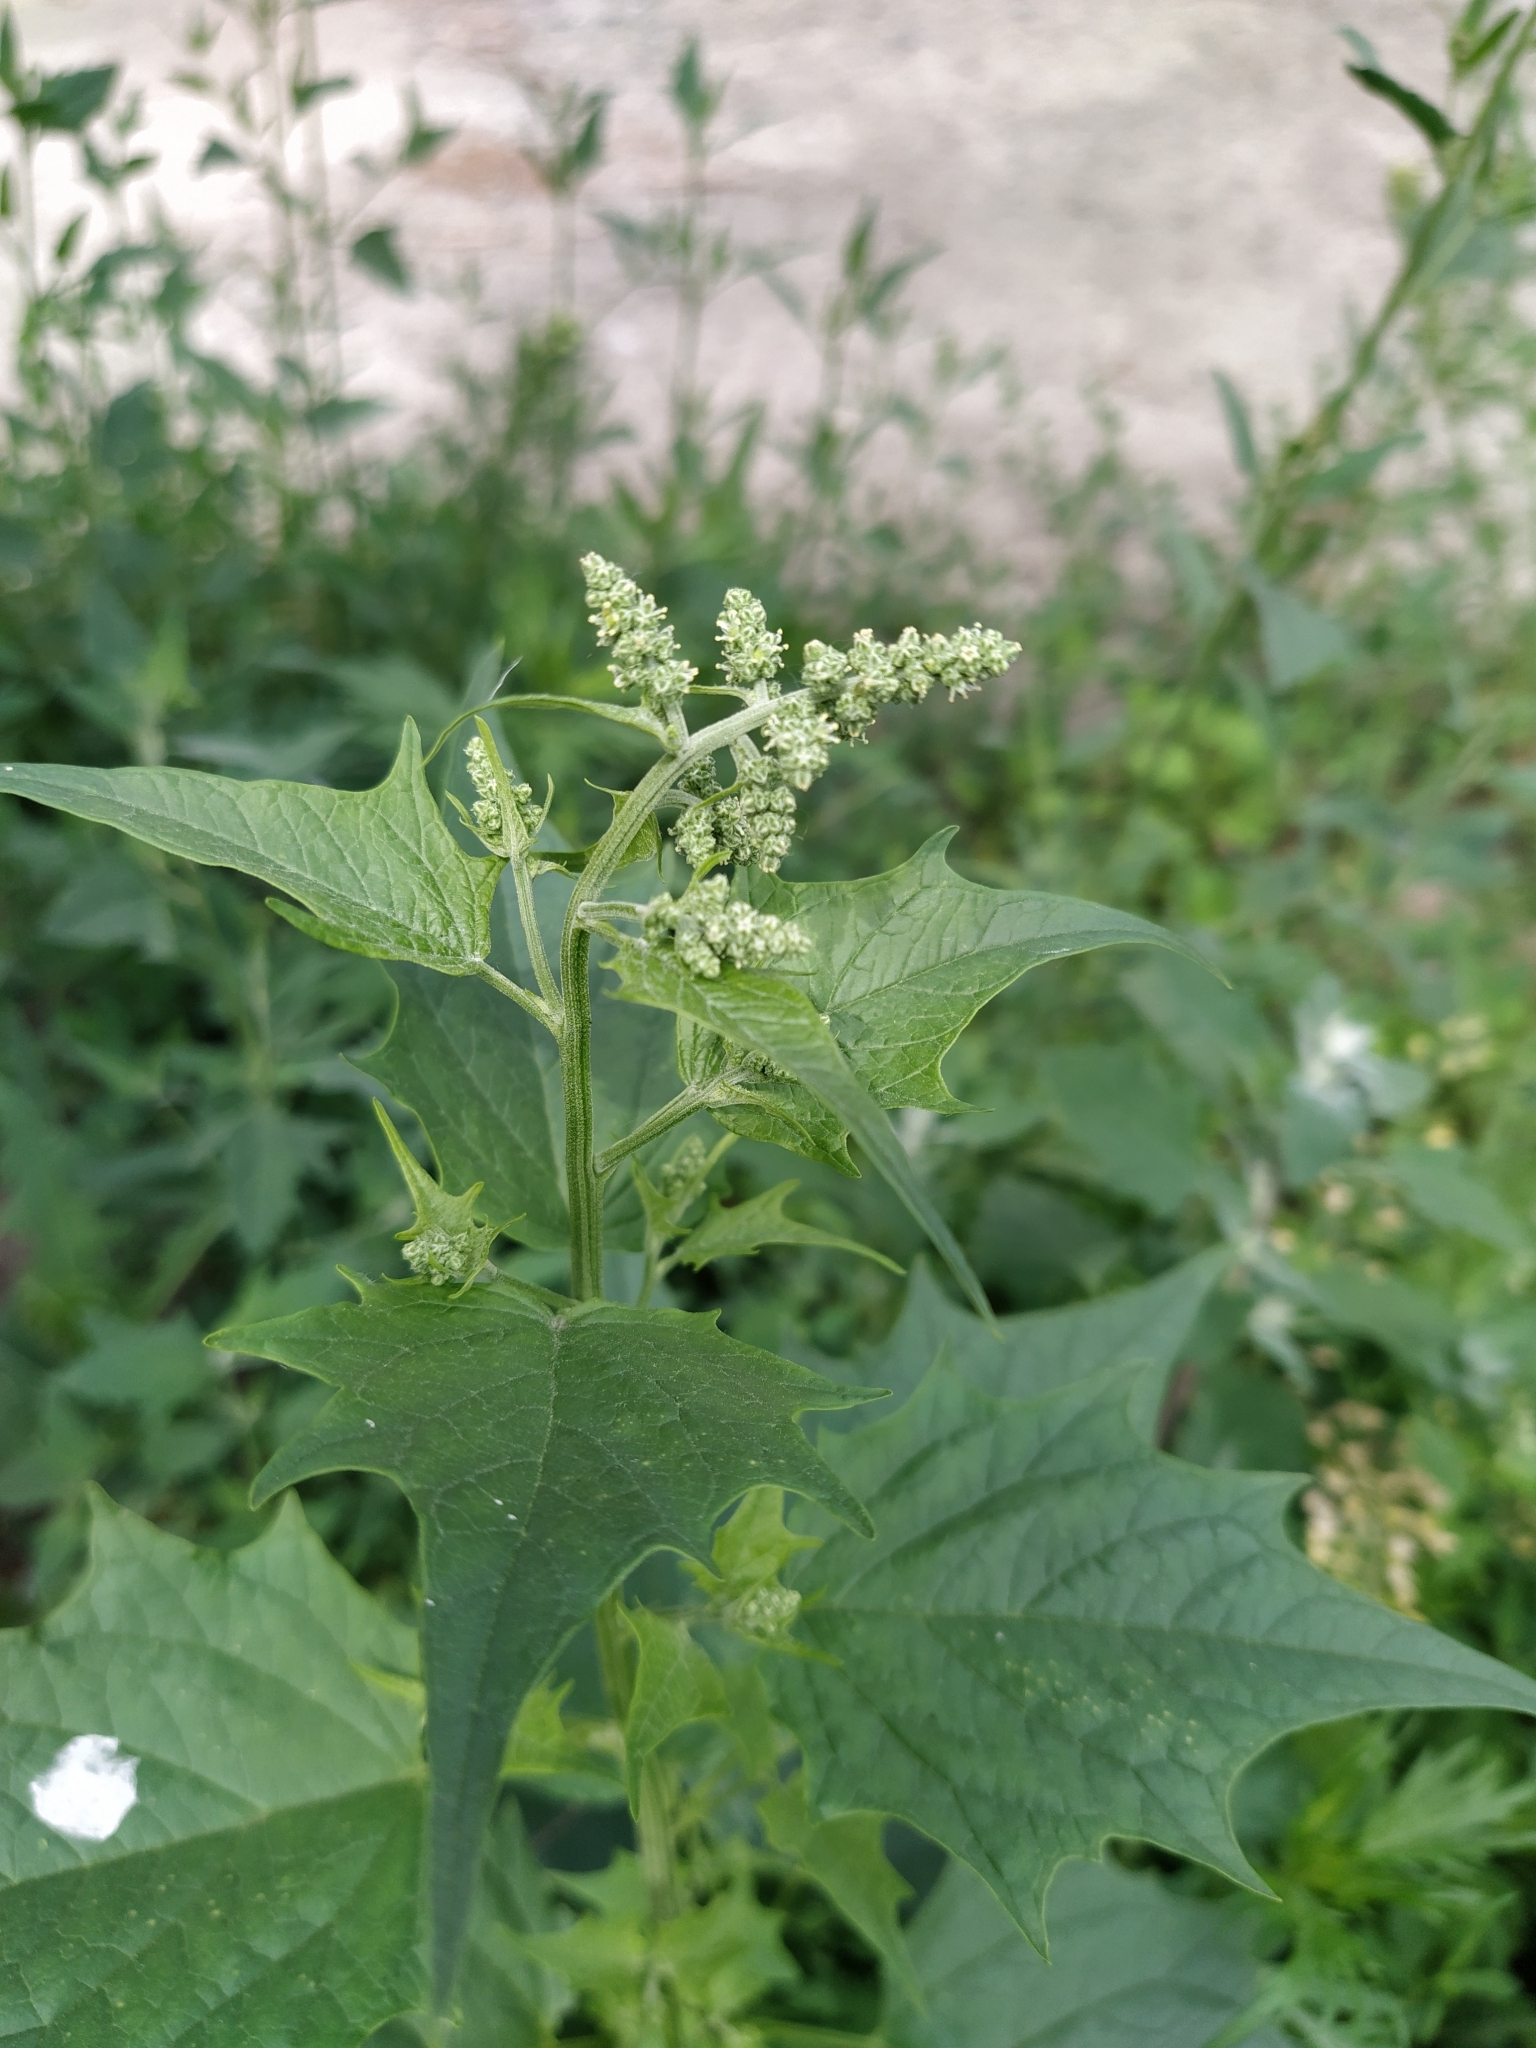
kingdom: Plantae
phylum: Tracheophyta
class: Magnoliopsida
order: Caryophyllales
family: Amaranthaceae
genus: Chenopodiastrum
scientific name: Chenopodiastrum hybridum
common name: Mapleleaf goosefoot
